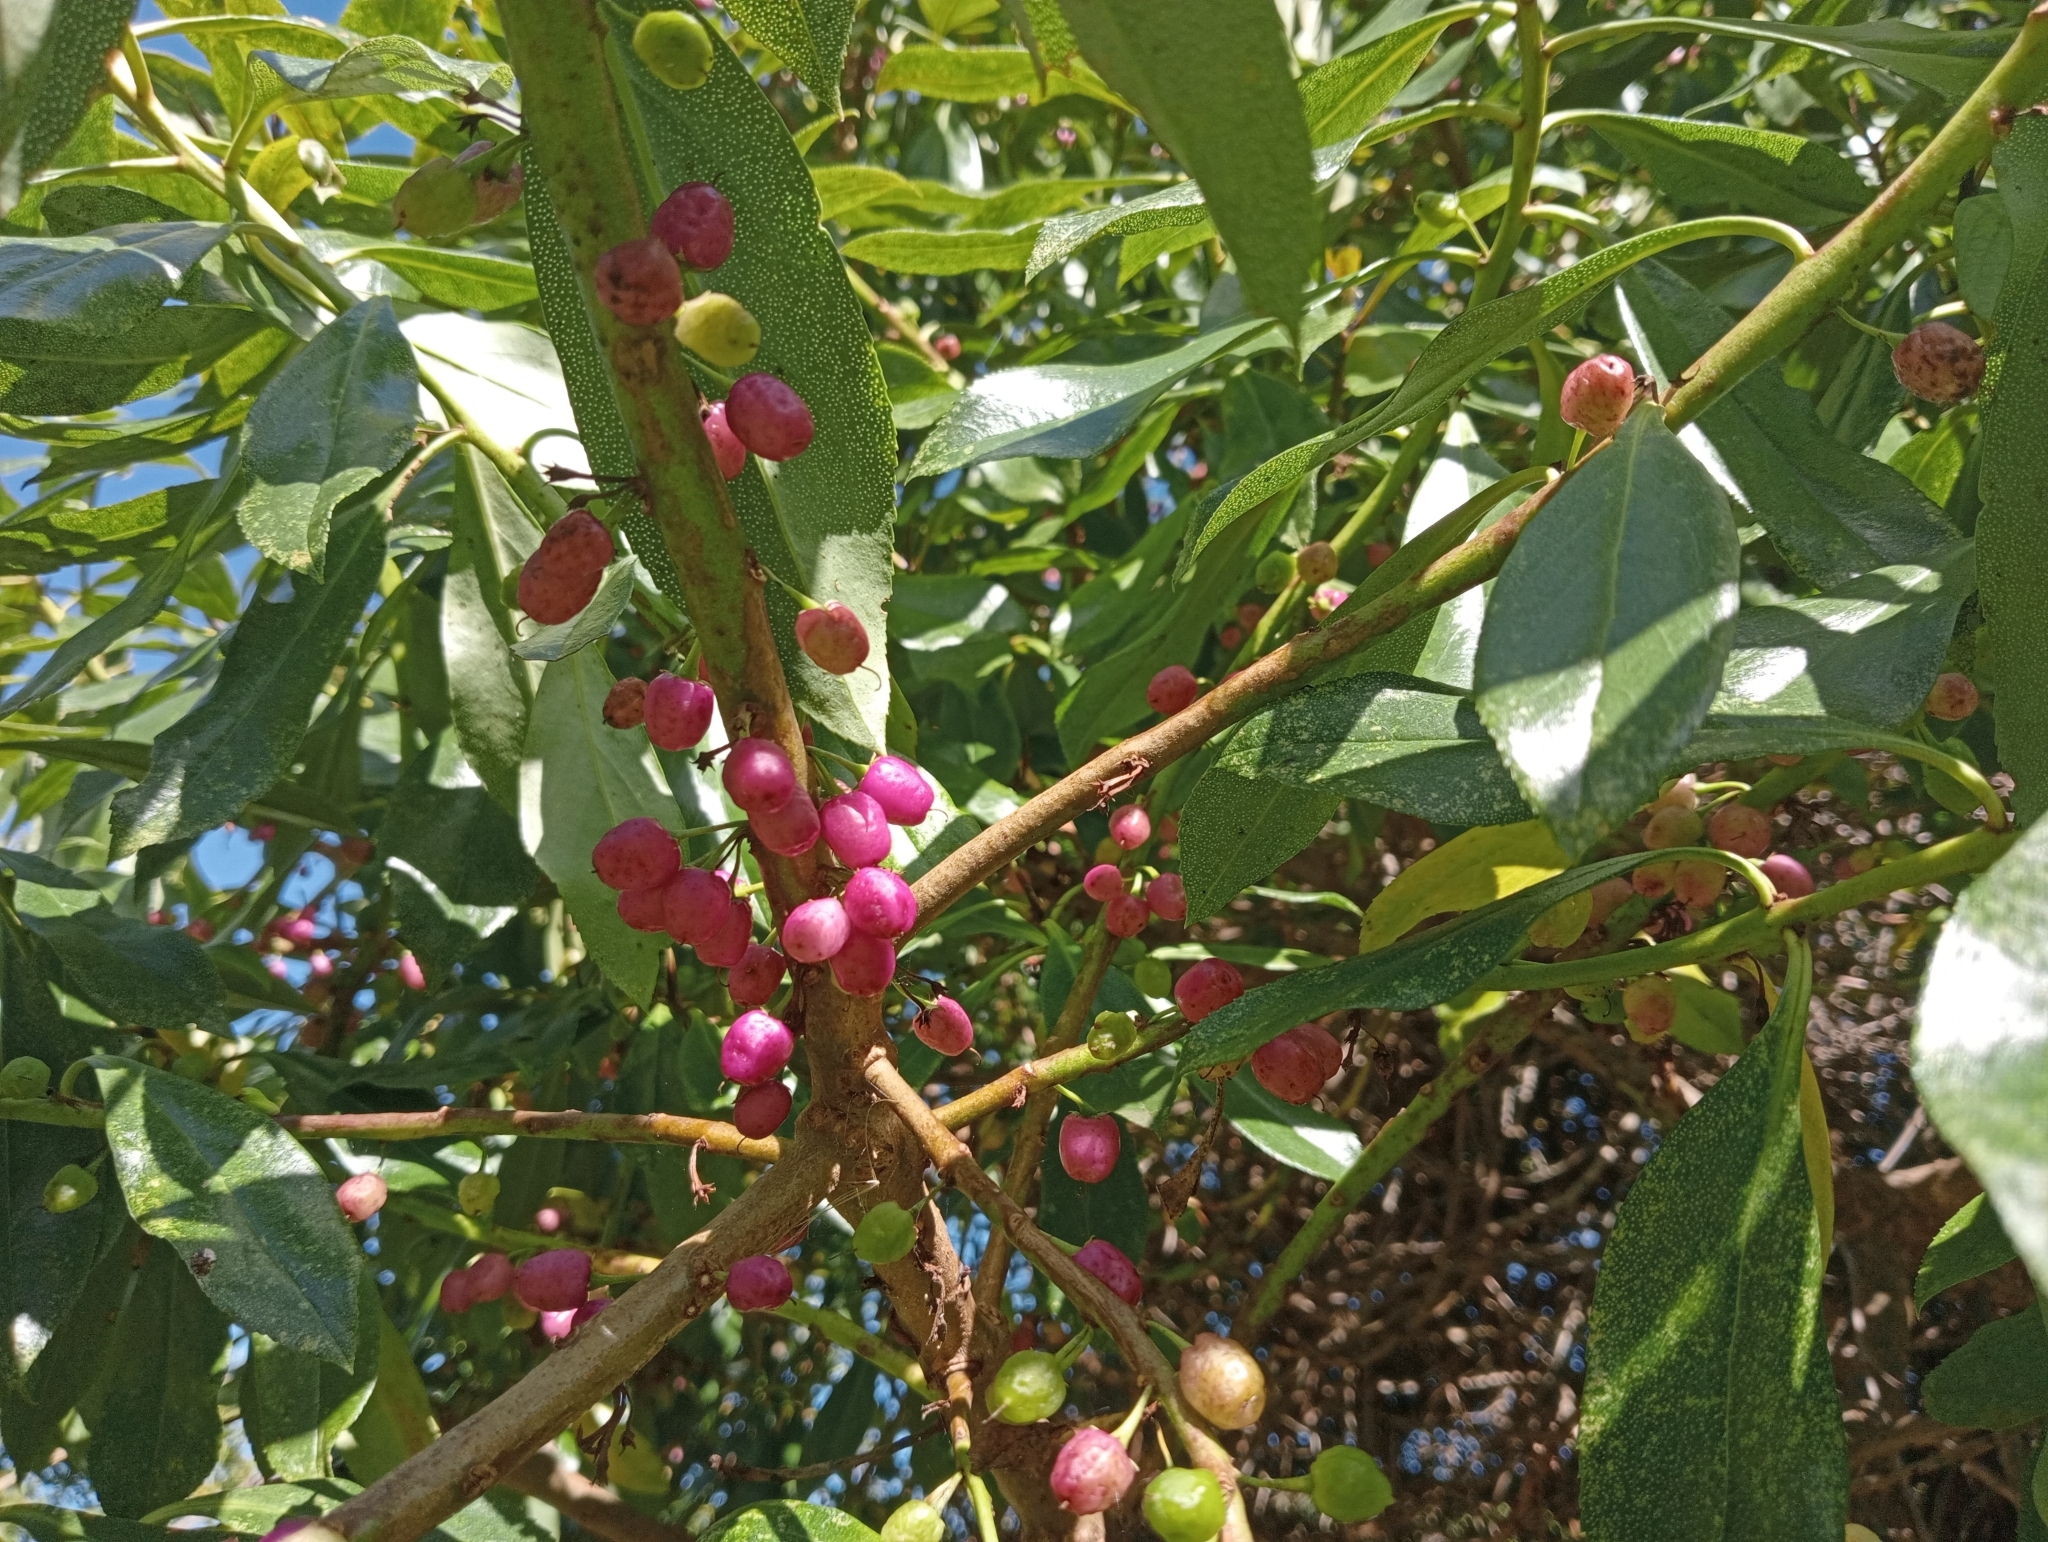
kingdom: Plantae
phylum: Tracheophyta
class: Magnoliopsida
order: Lamiales
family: Scrophulariaceae
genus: Myoporum
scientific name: Myoporum laetum
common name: Ngaio tree
